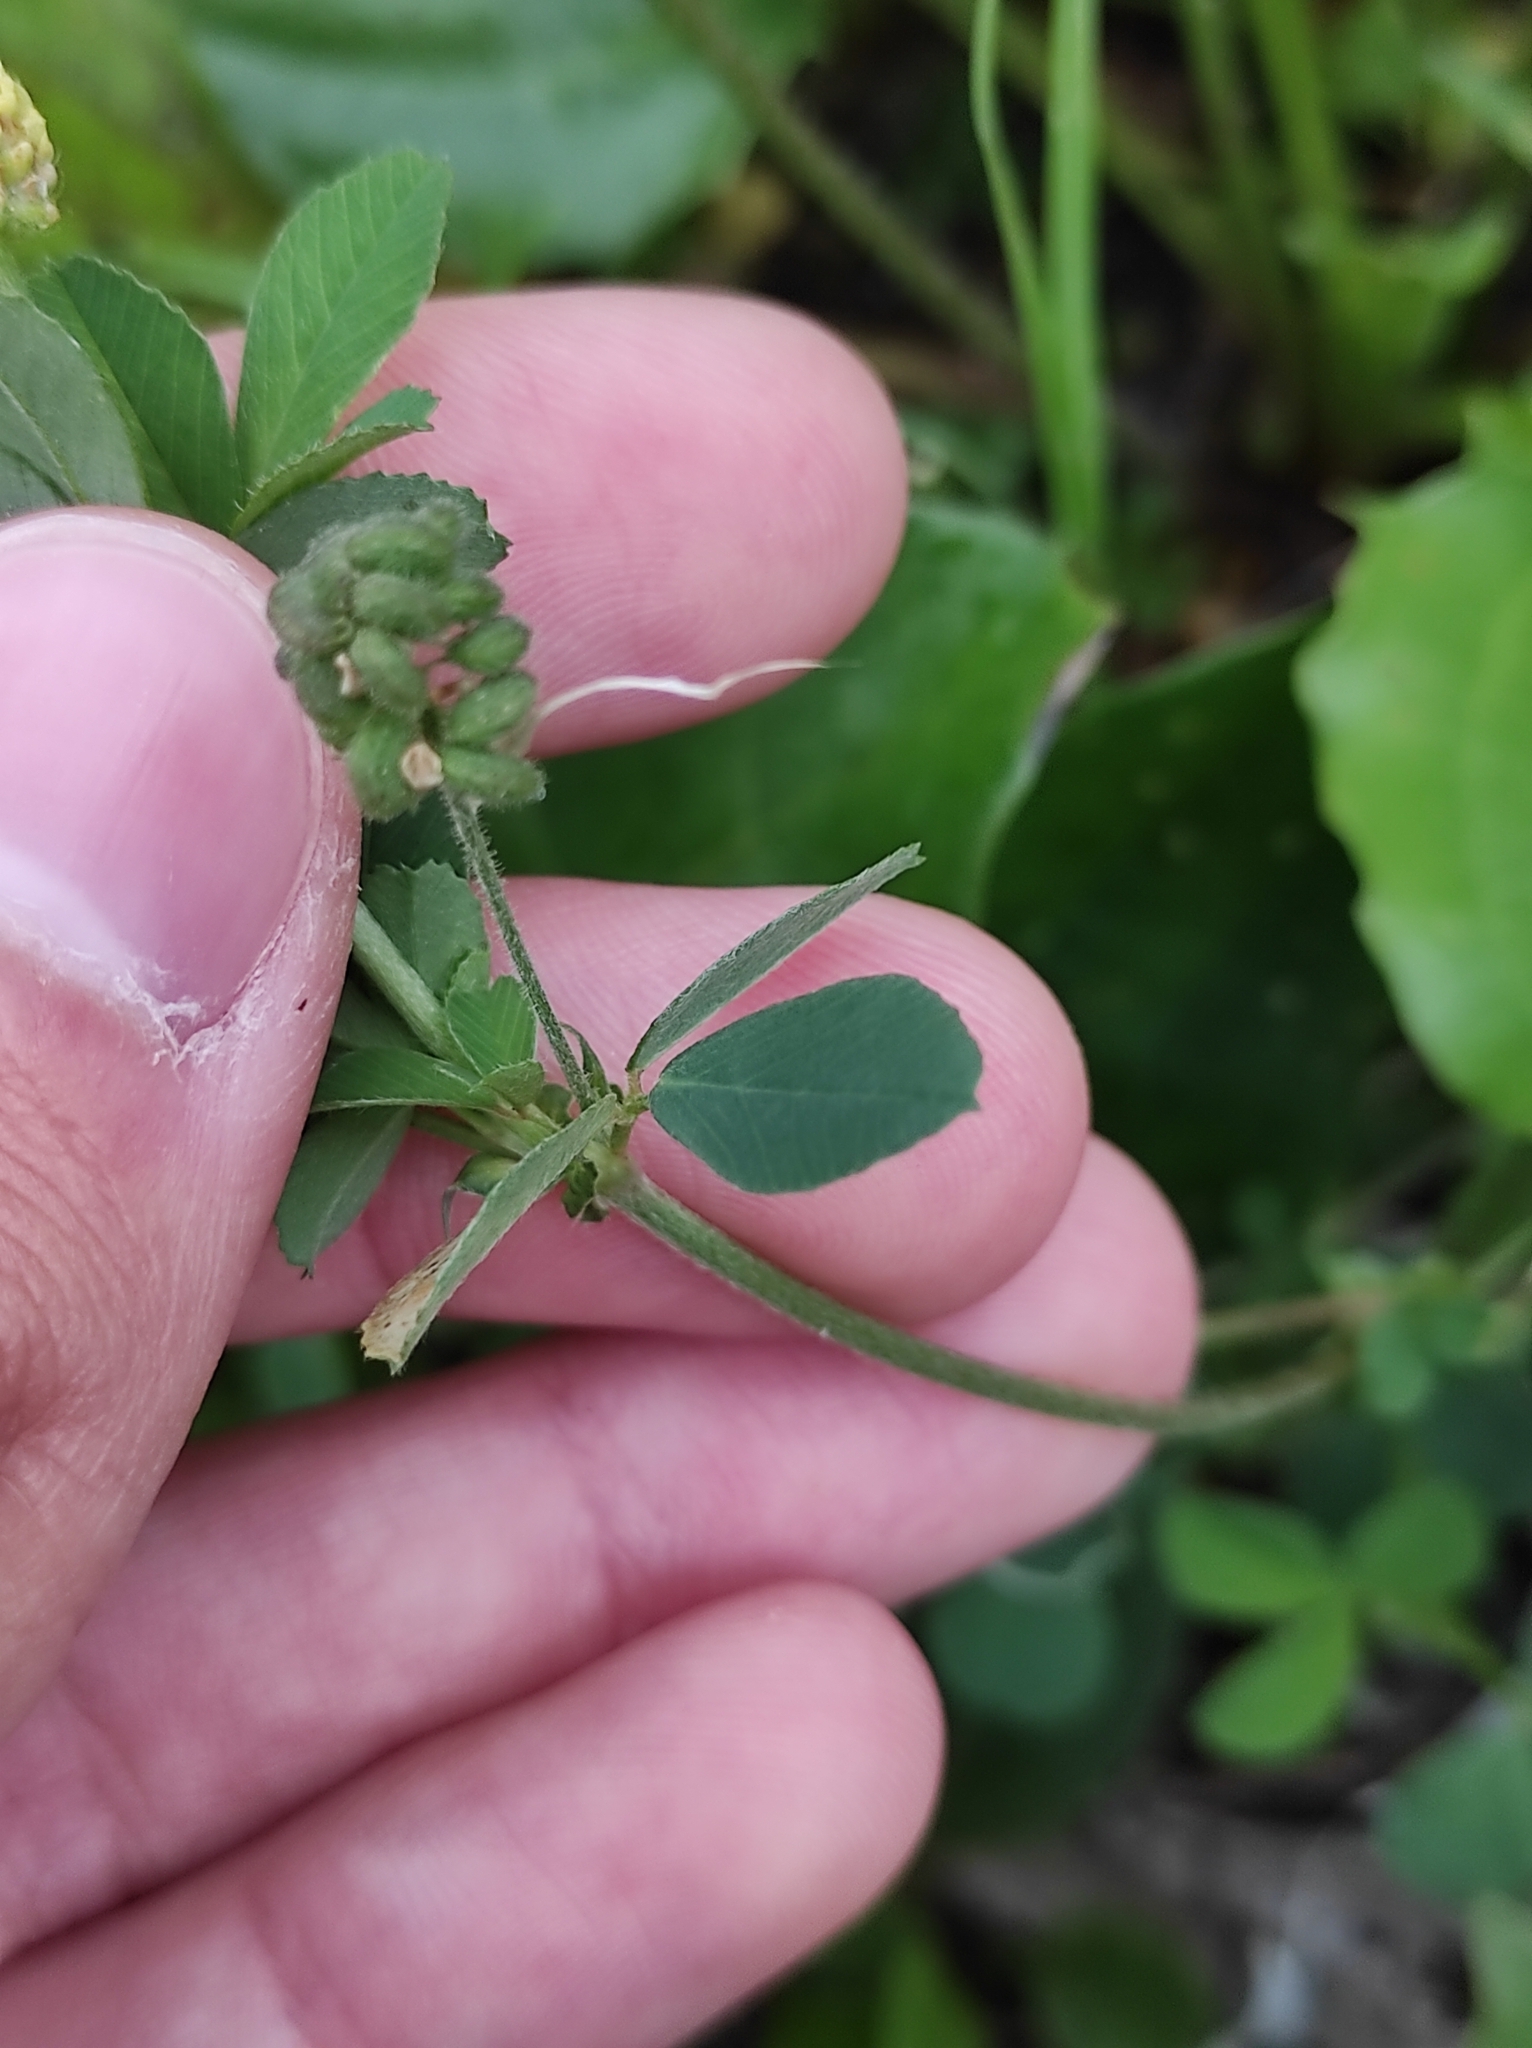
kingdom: Plantae
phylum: Tracheophyta
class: Magnoliopsida
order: Fabales
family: Fabaceae
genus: Medicago
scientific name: Medicago lupulina
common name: Black medick
